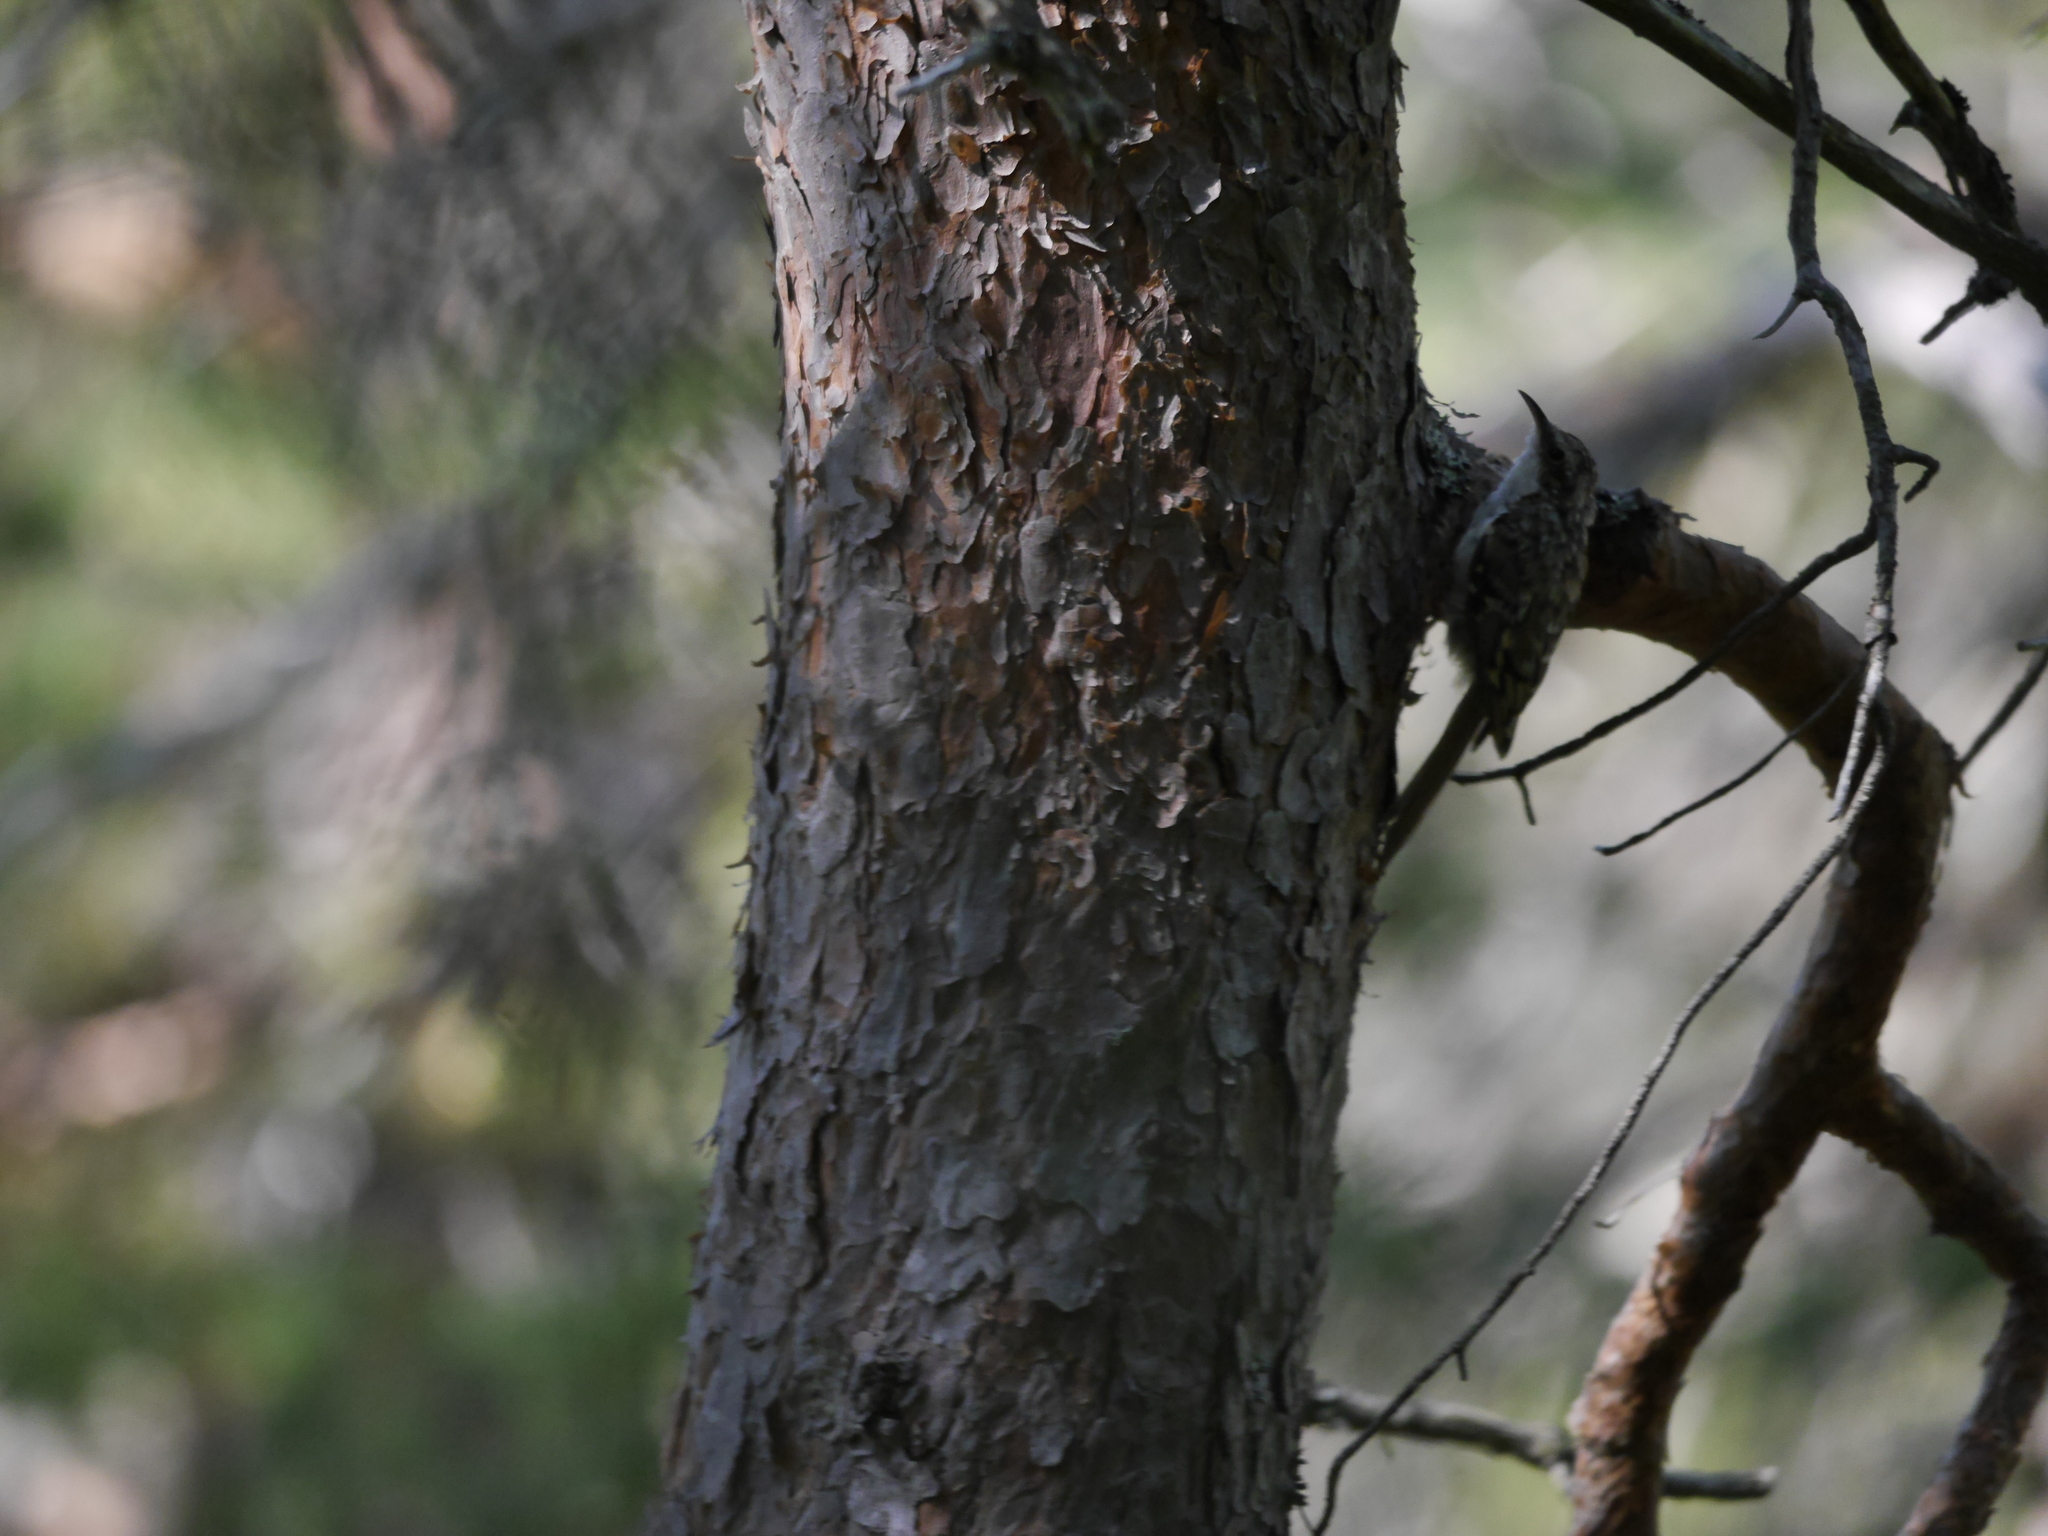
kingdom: Animalia
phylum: Chordata
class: Aves
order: Passeriformes
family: Certhiidae
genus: Certhia
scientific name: Certhia familiaris
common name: Eurasian treecreeper
